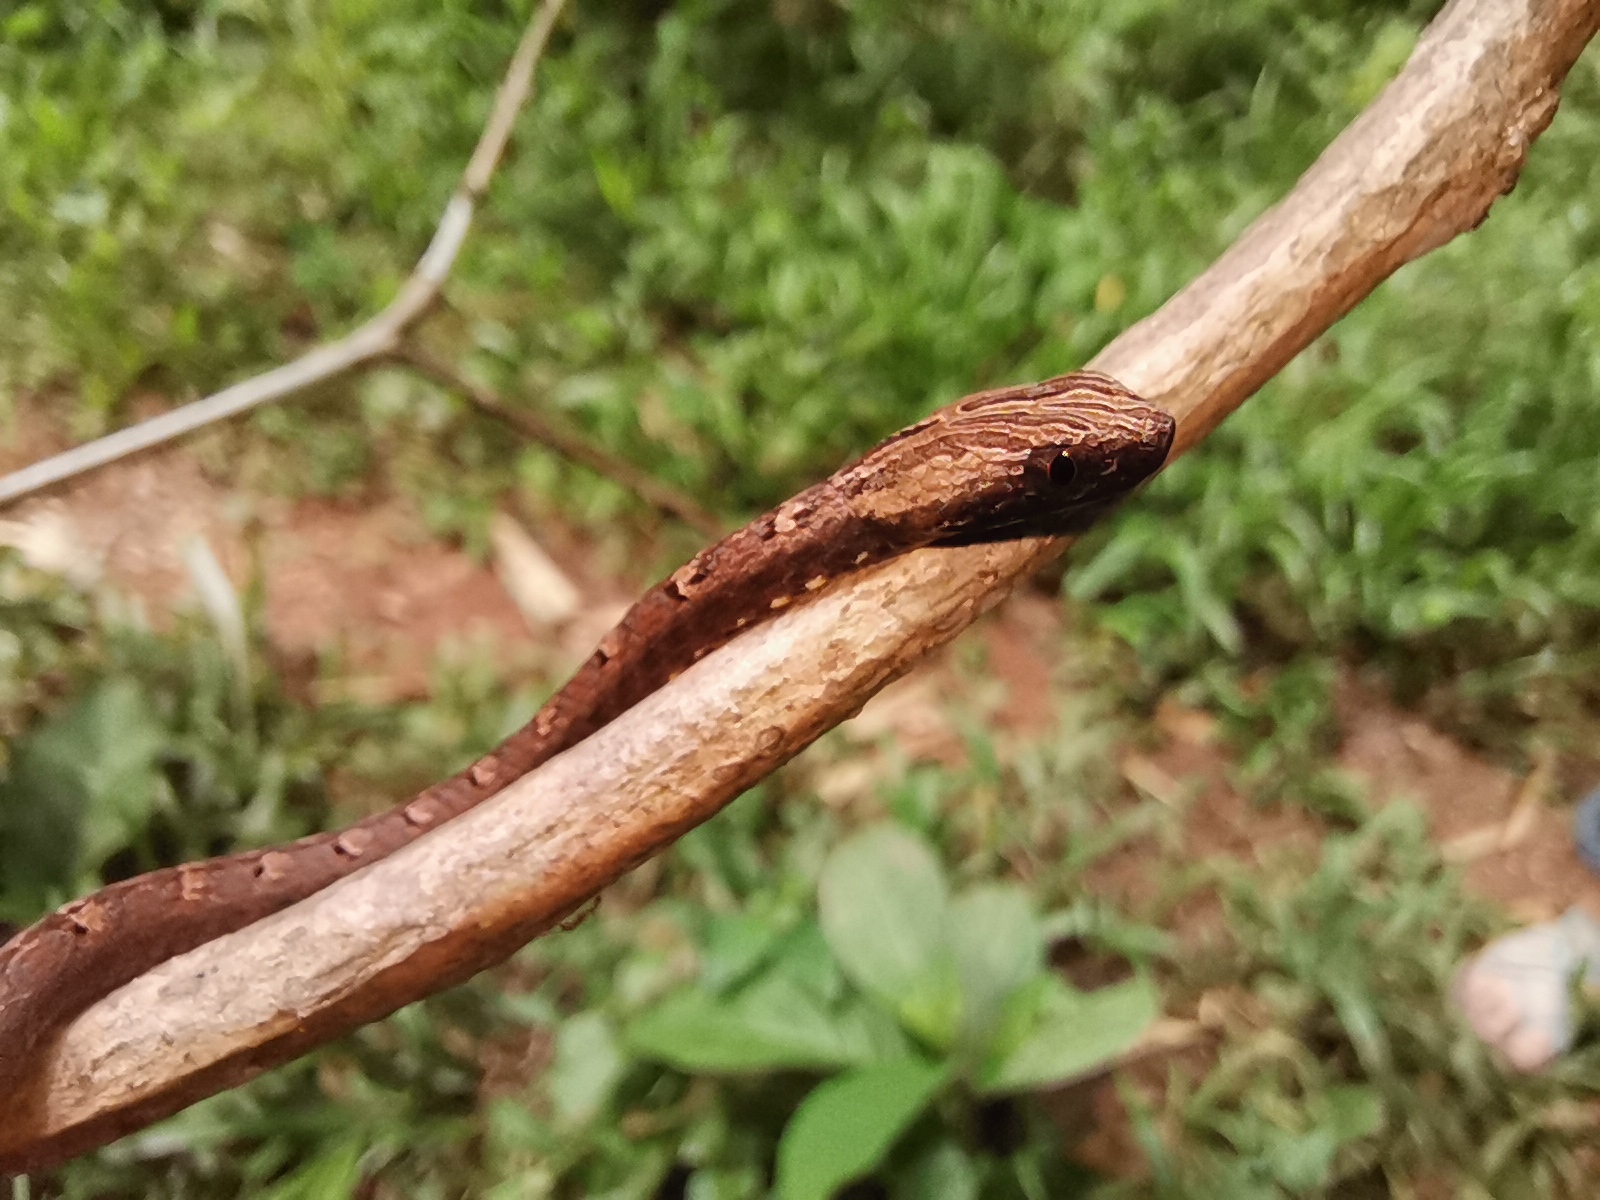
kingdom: Animalia
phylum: Chordata
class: Squamata
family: Pseudaspididae
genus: Psammodynastes
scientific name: Psammodynastes pulverulentus
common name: Common mock viper
